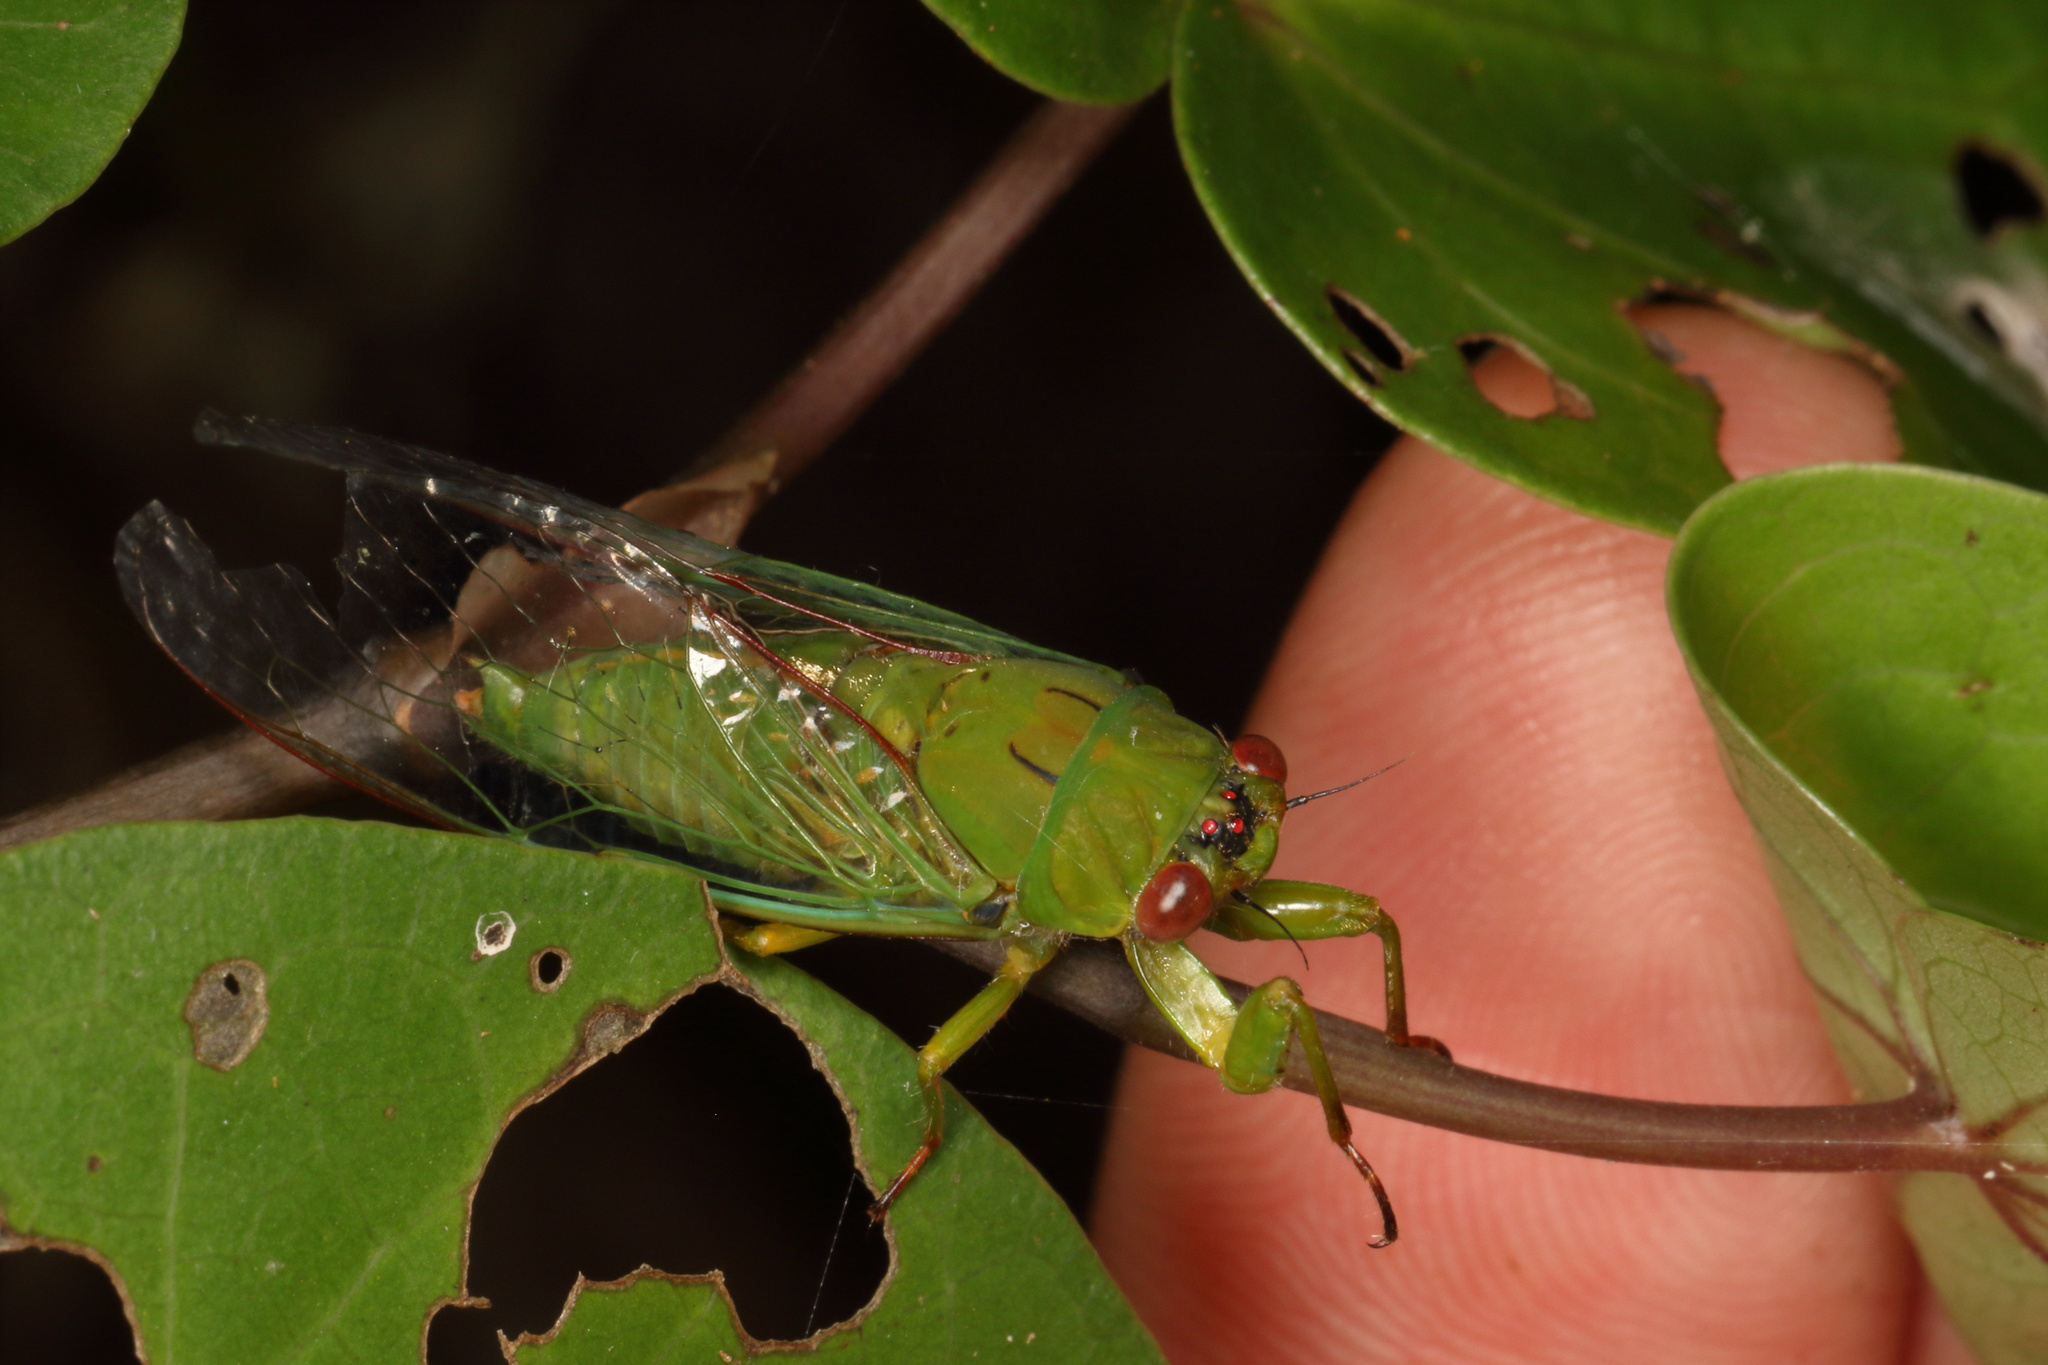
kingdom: Animalia
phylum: Arthropoda
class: Insecta
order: Hemiptera
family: Cicadidae
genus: Kikihia
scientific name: Kikihia ochrina
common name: April green cicada
